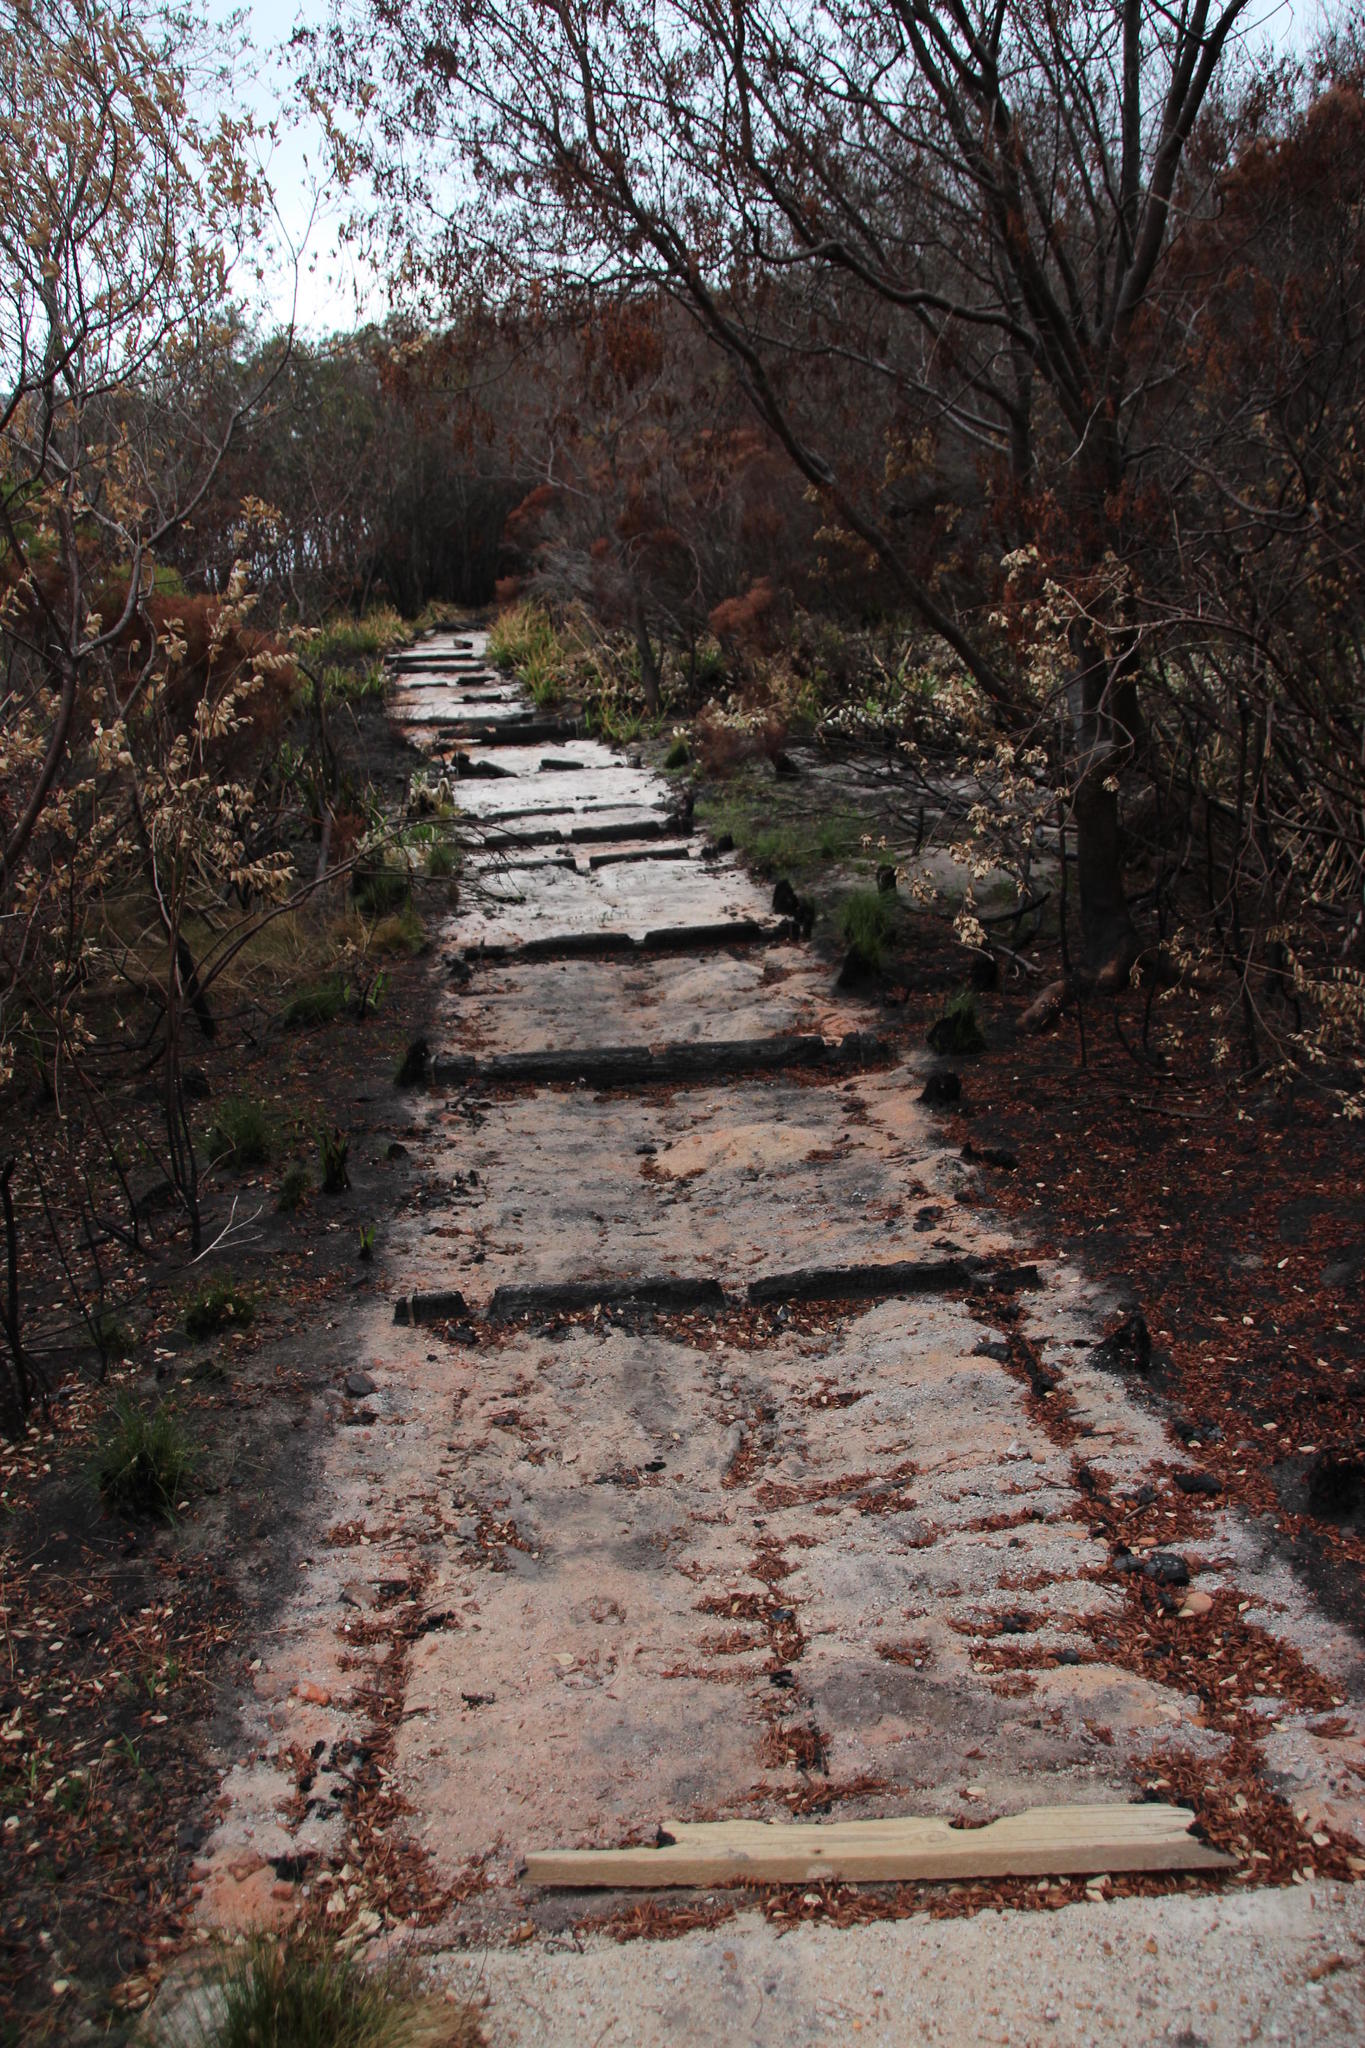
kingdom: Plantae
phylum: Tracheophyta
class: Magnoliopsida
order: Fabales
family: Fabaceae
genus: Virgilia
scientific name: Virgilia oroboides
